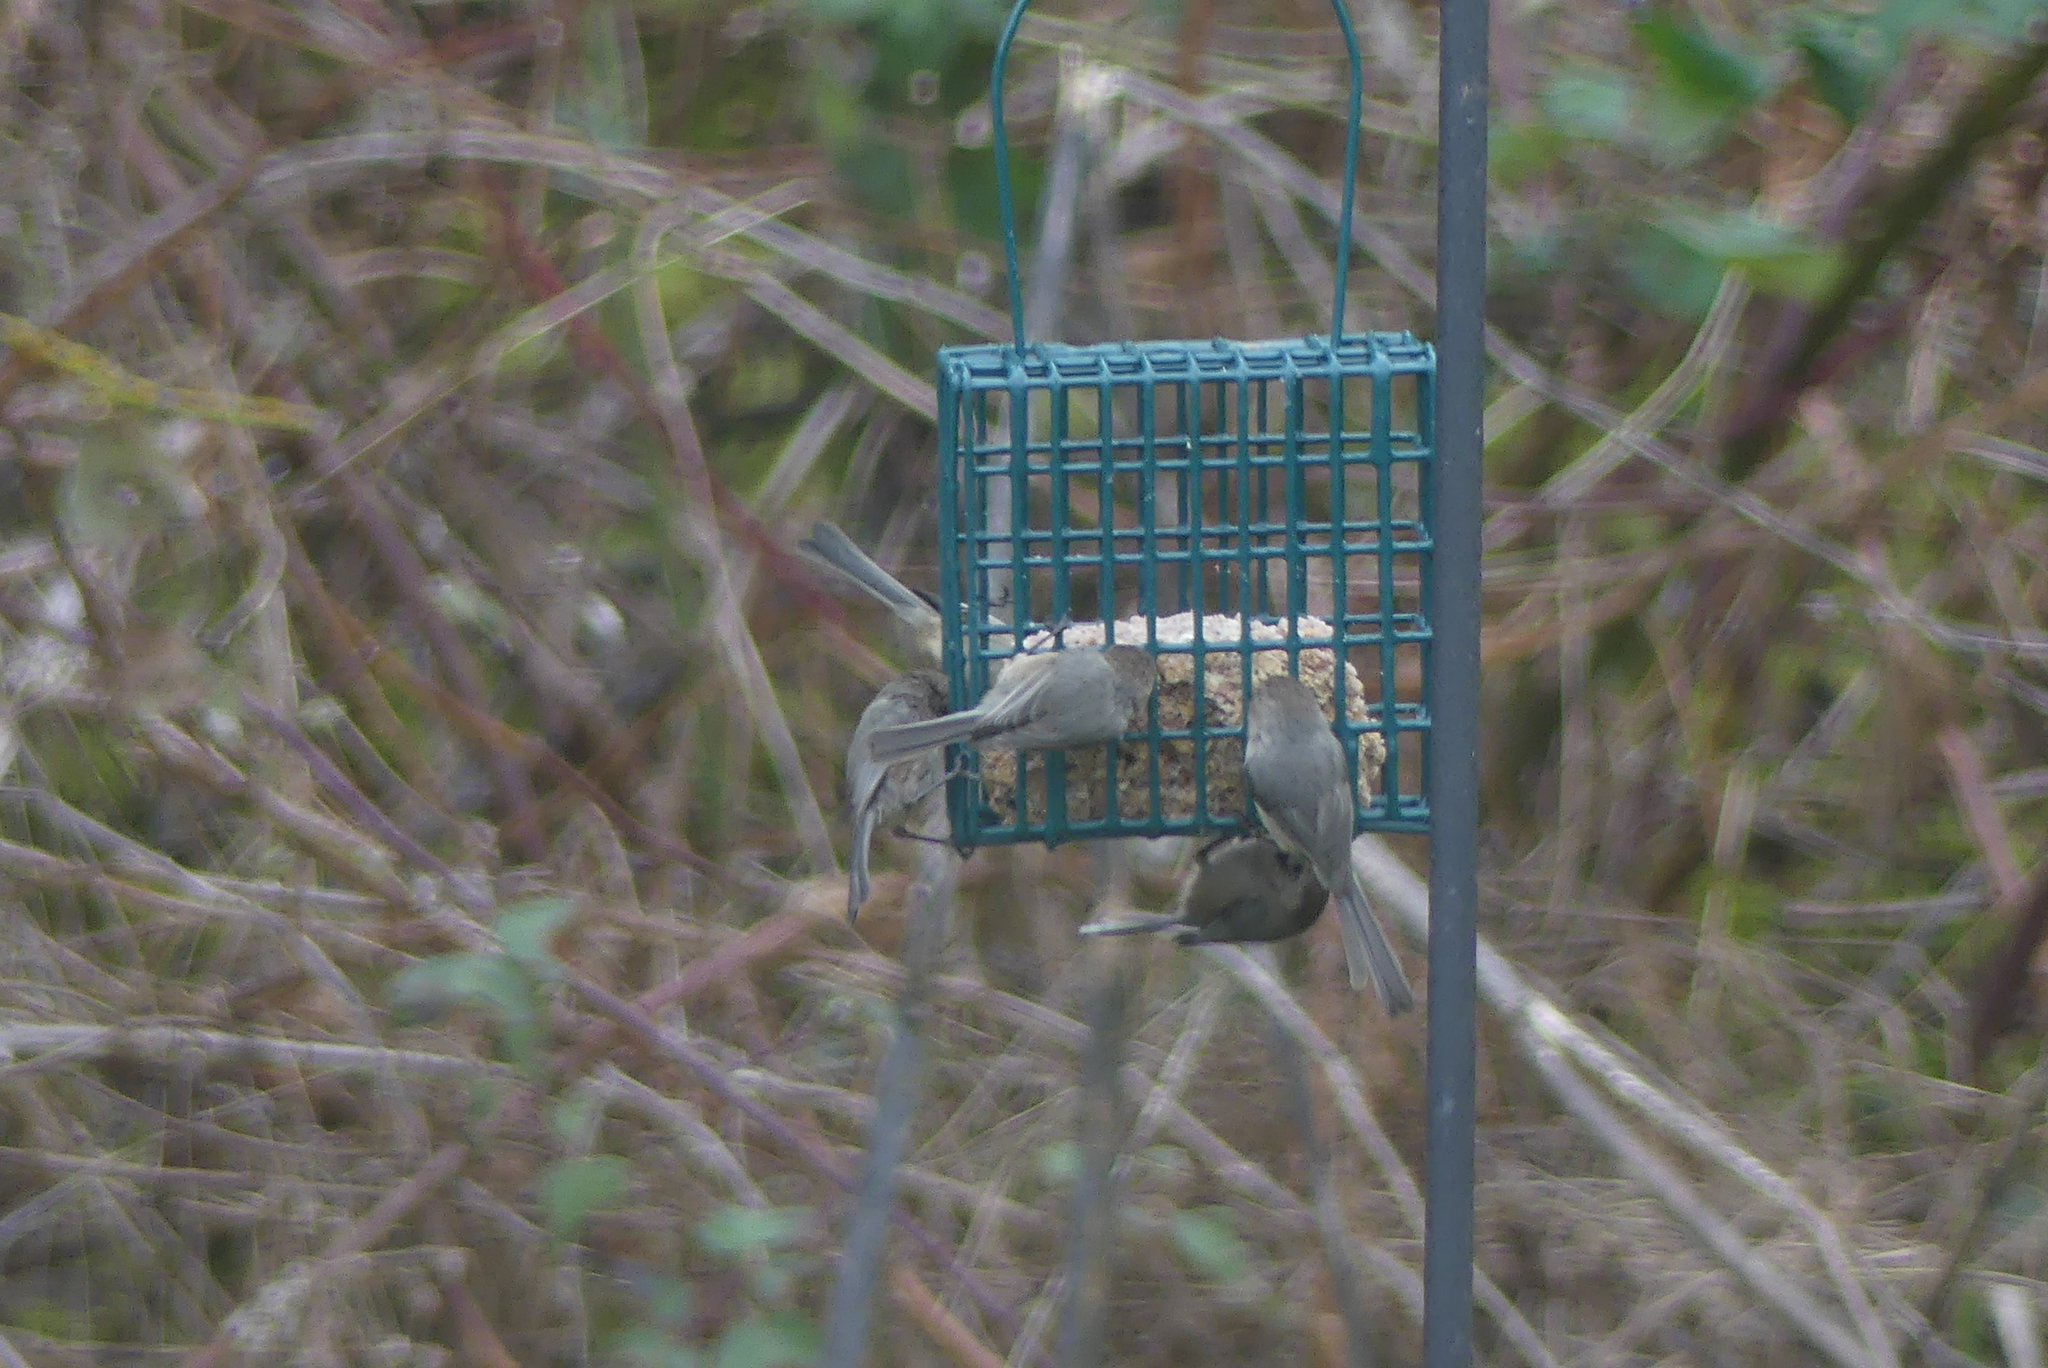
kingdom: Animalia
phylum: Chordata
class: Aves
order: Passeriformes
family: Aegithalidae
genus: Psaltriparus
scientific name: Psaltriparus minimus
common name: American bushtit
